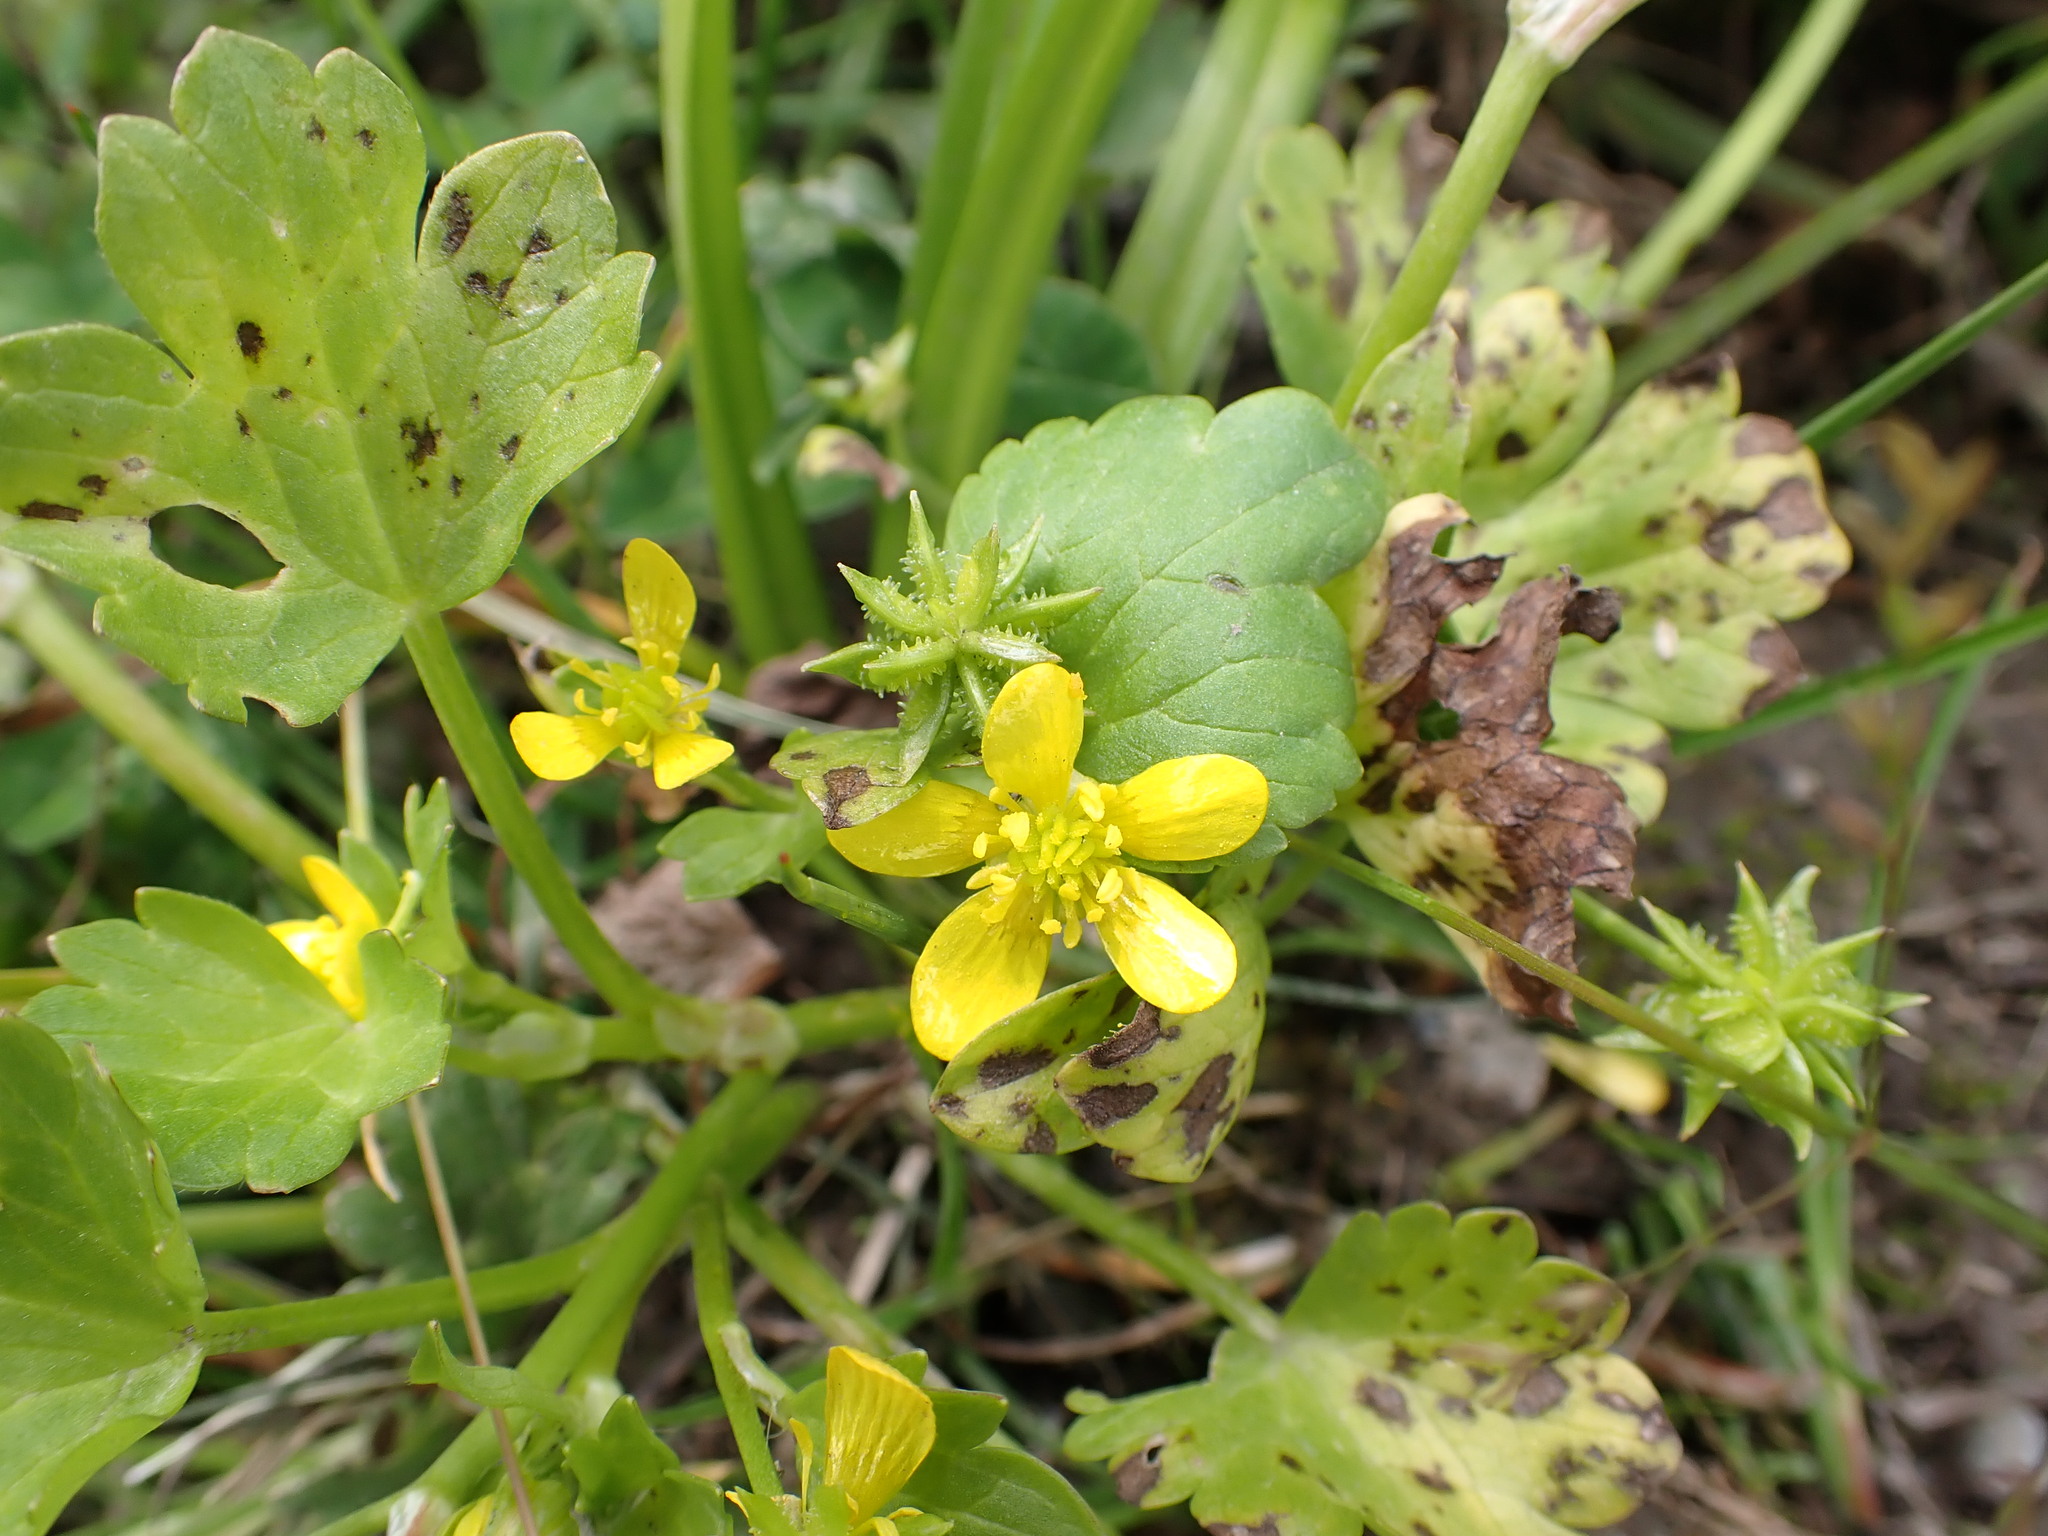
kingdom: Plantae
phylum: Tracheophyta
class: Magnoliopsida
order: Ranunculales
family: Ranunculaceae
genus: Ranunculus
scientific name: Ranunculus muricatus
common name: Rough-fruited buttercup
